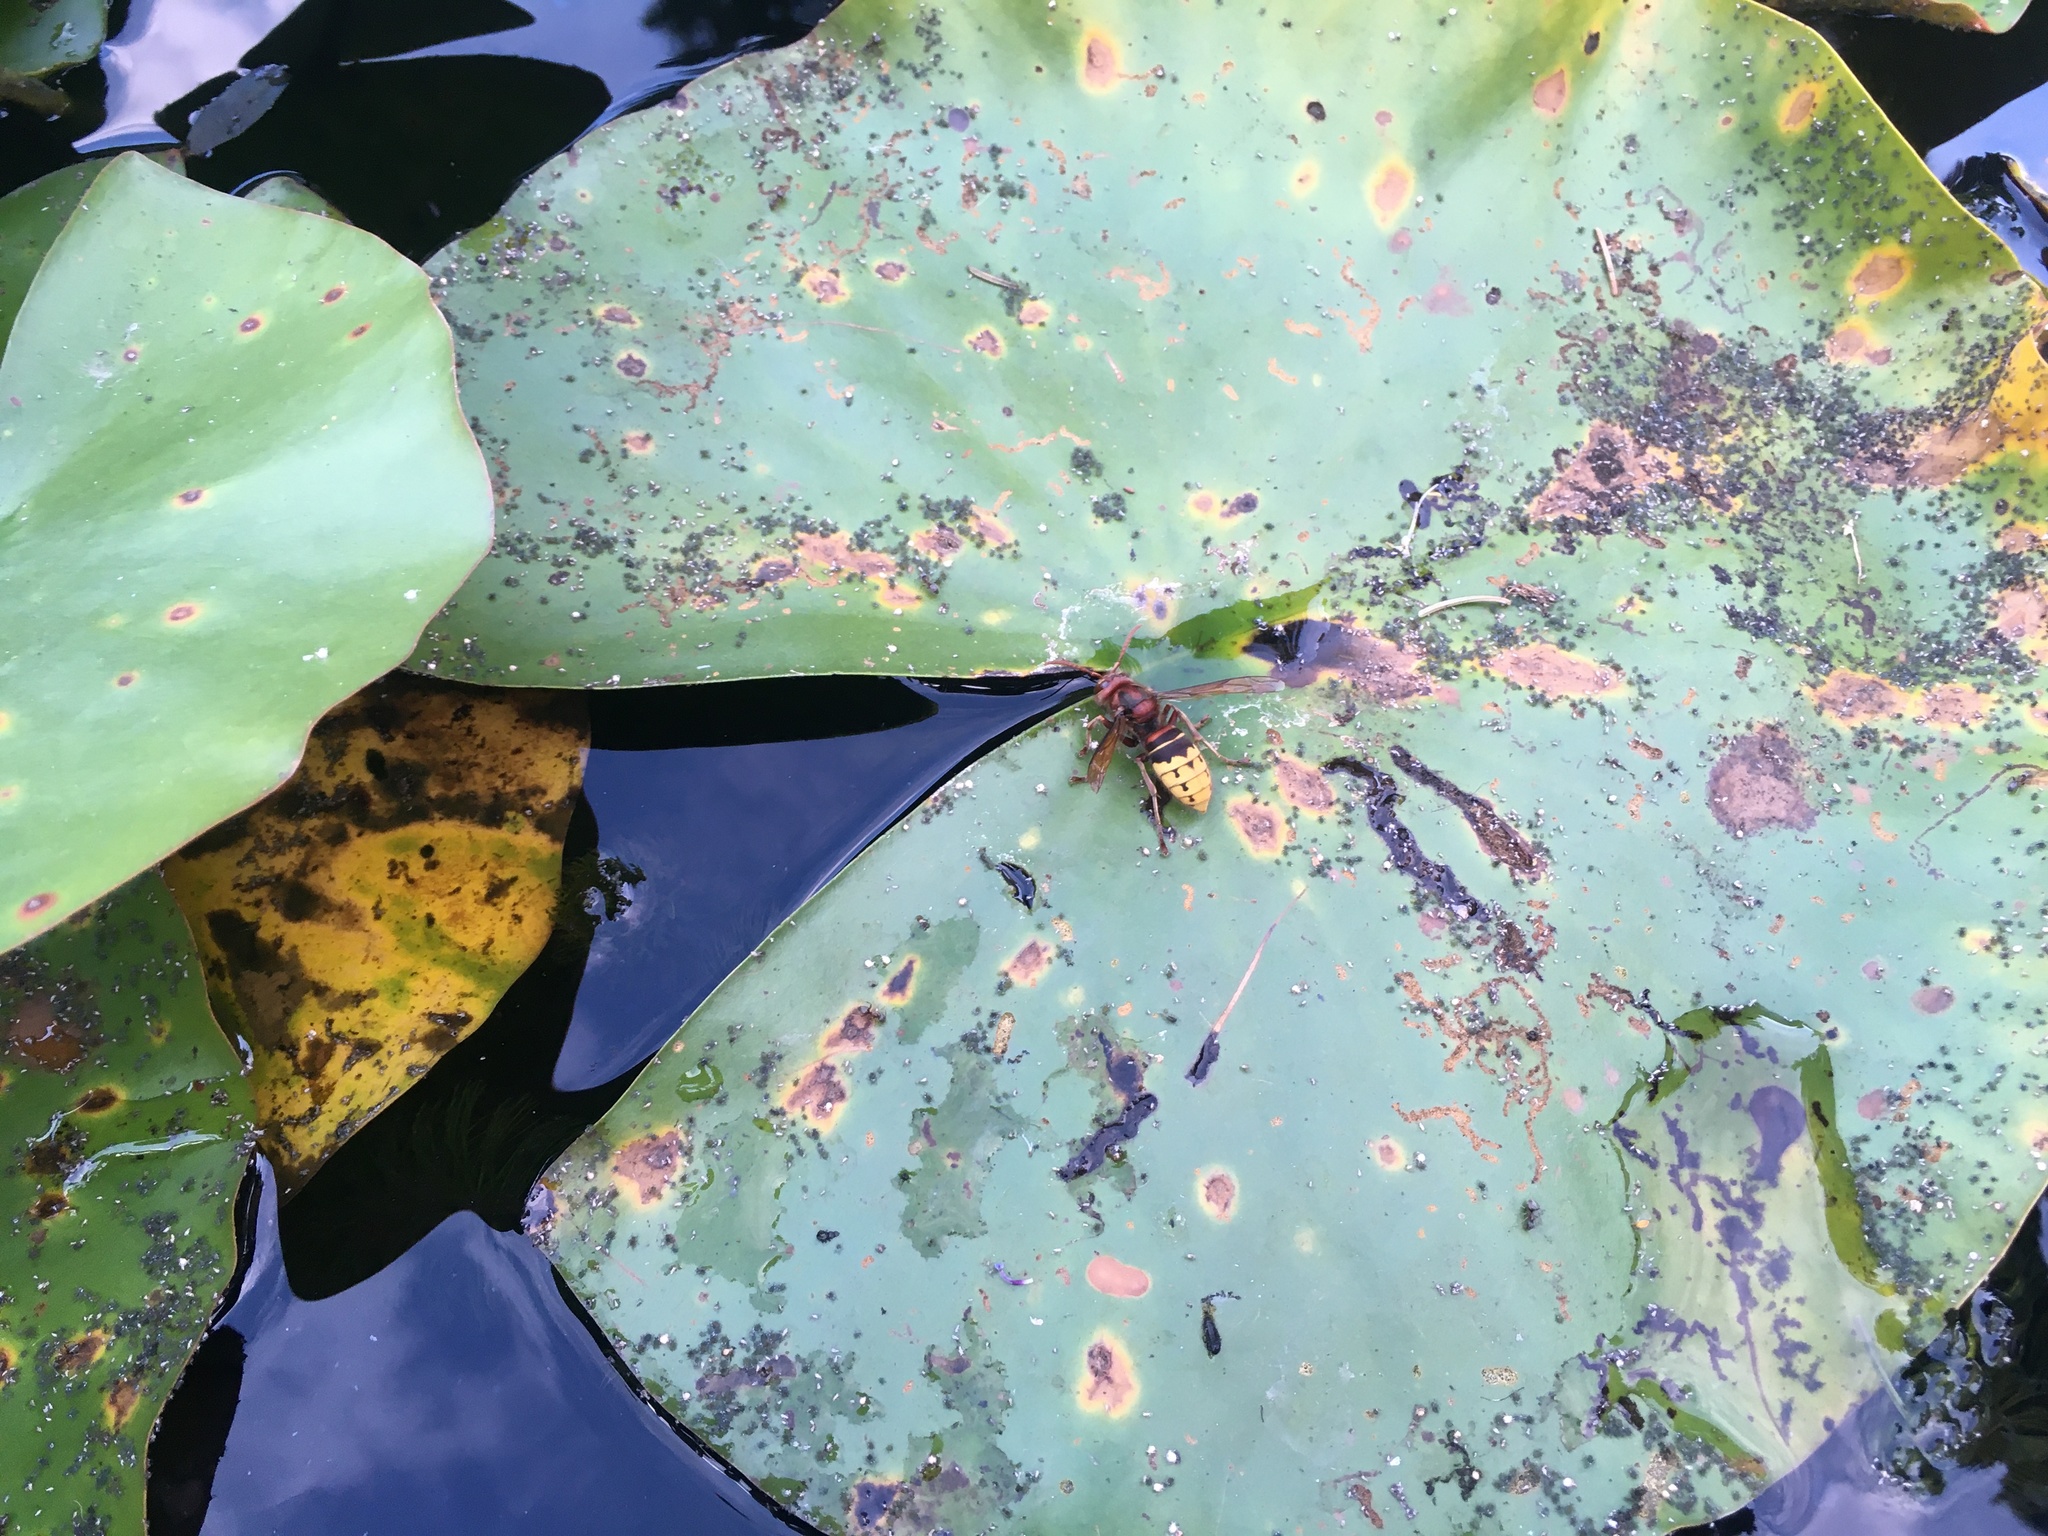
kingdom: Animalia
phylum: Arthropoda
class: Insecta
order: Hymenoptera
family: Vespidae
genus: Vespa
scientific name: Vespa crabro
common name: Hornet
